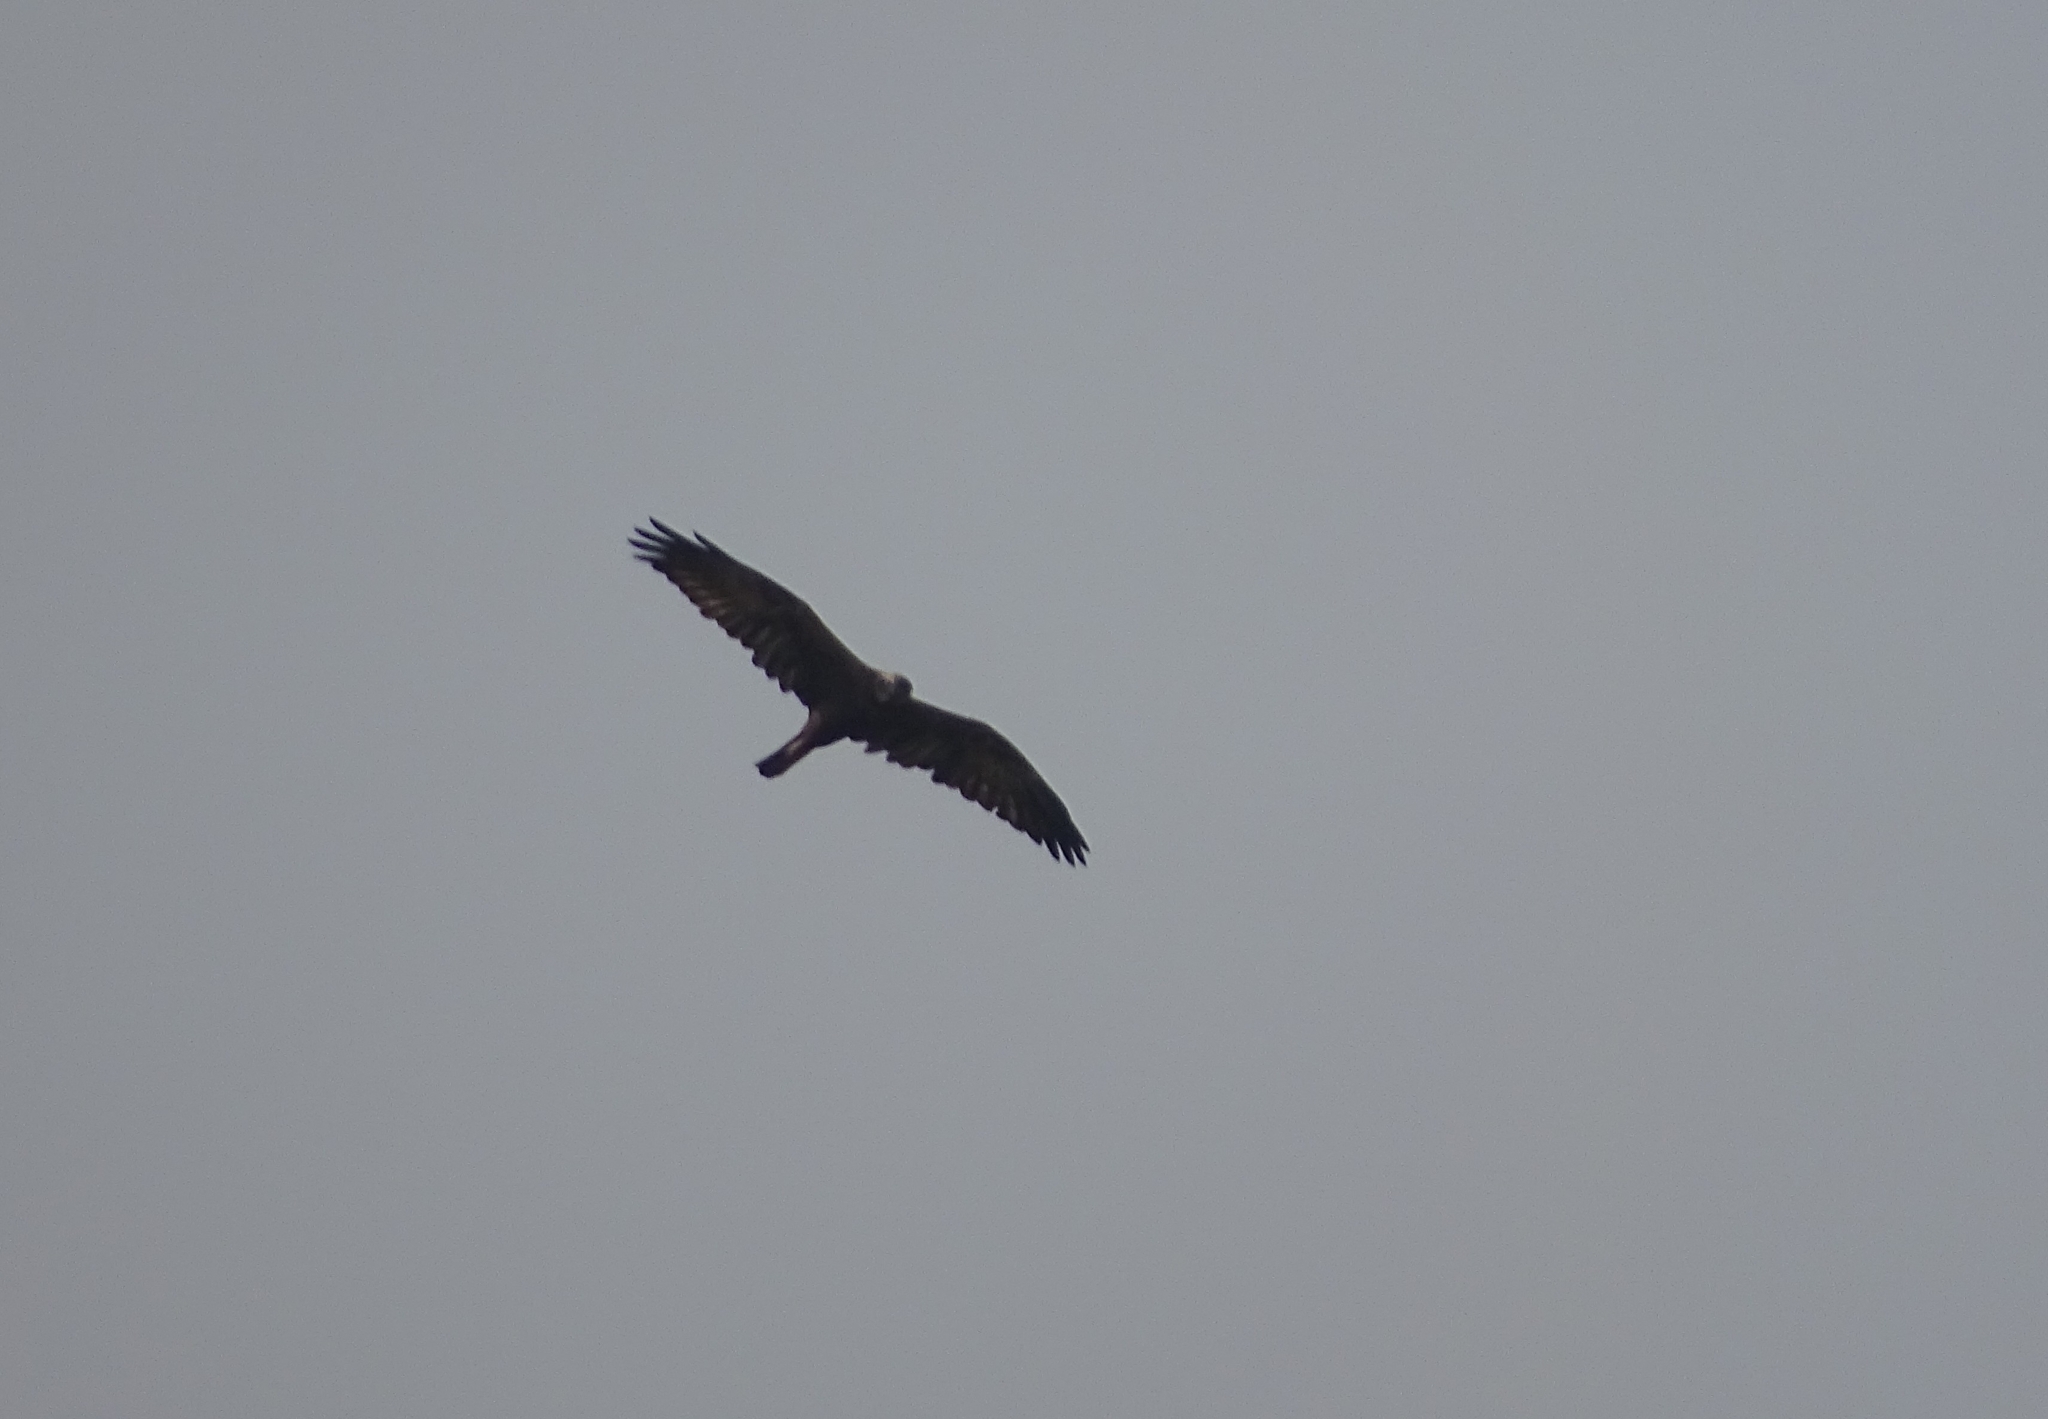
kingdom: Animalia
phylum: Chordata
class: Aves
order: Accipitriformes
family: Accipitridae
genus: Circus
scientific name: Circus aeruginosus
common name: Western marsh harrier
